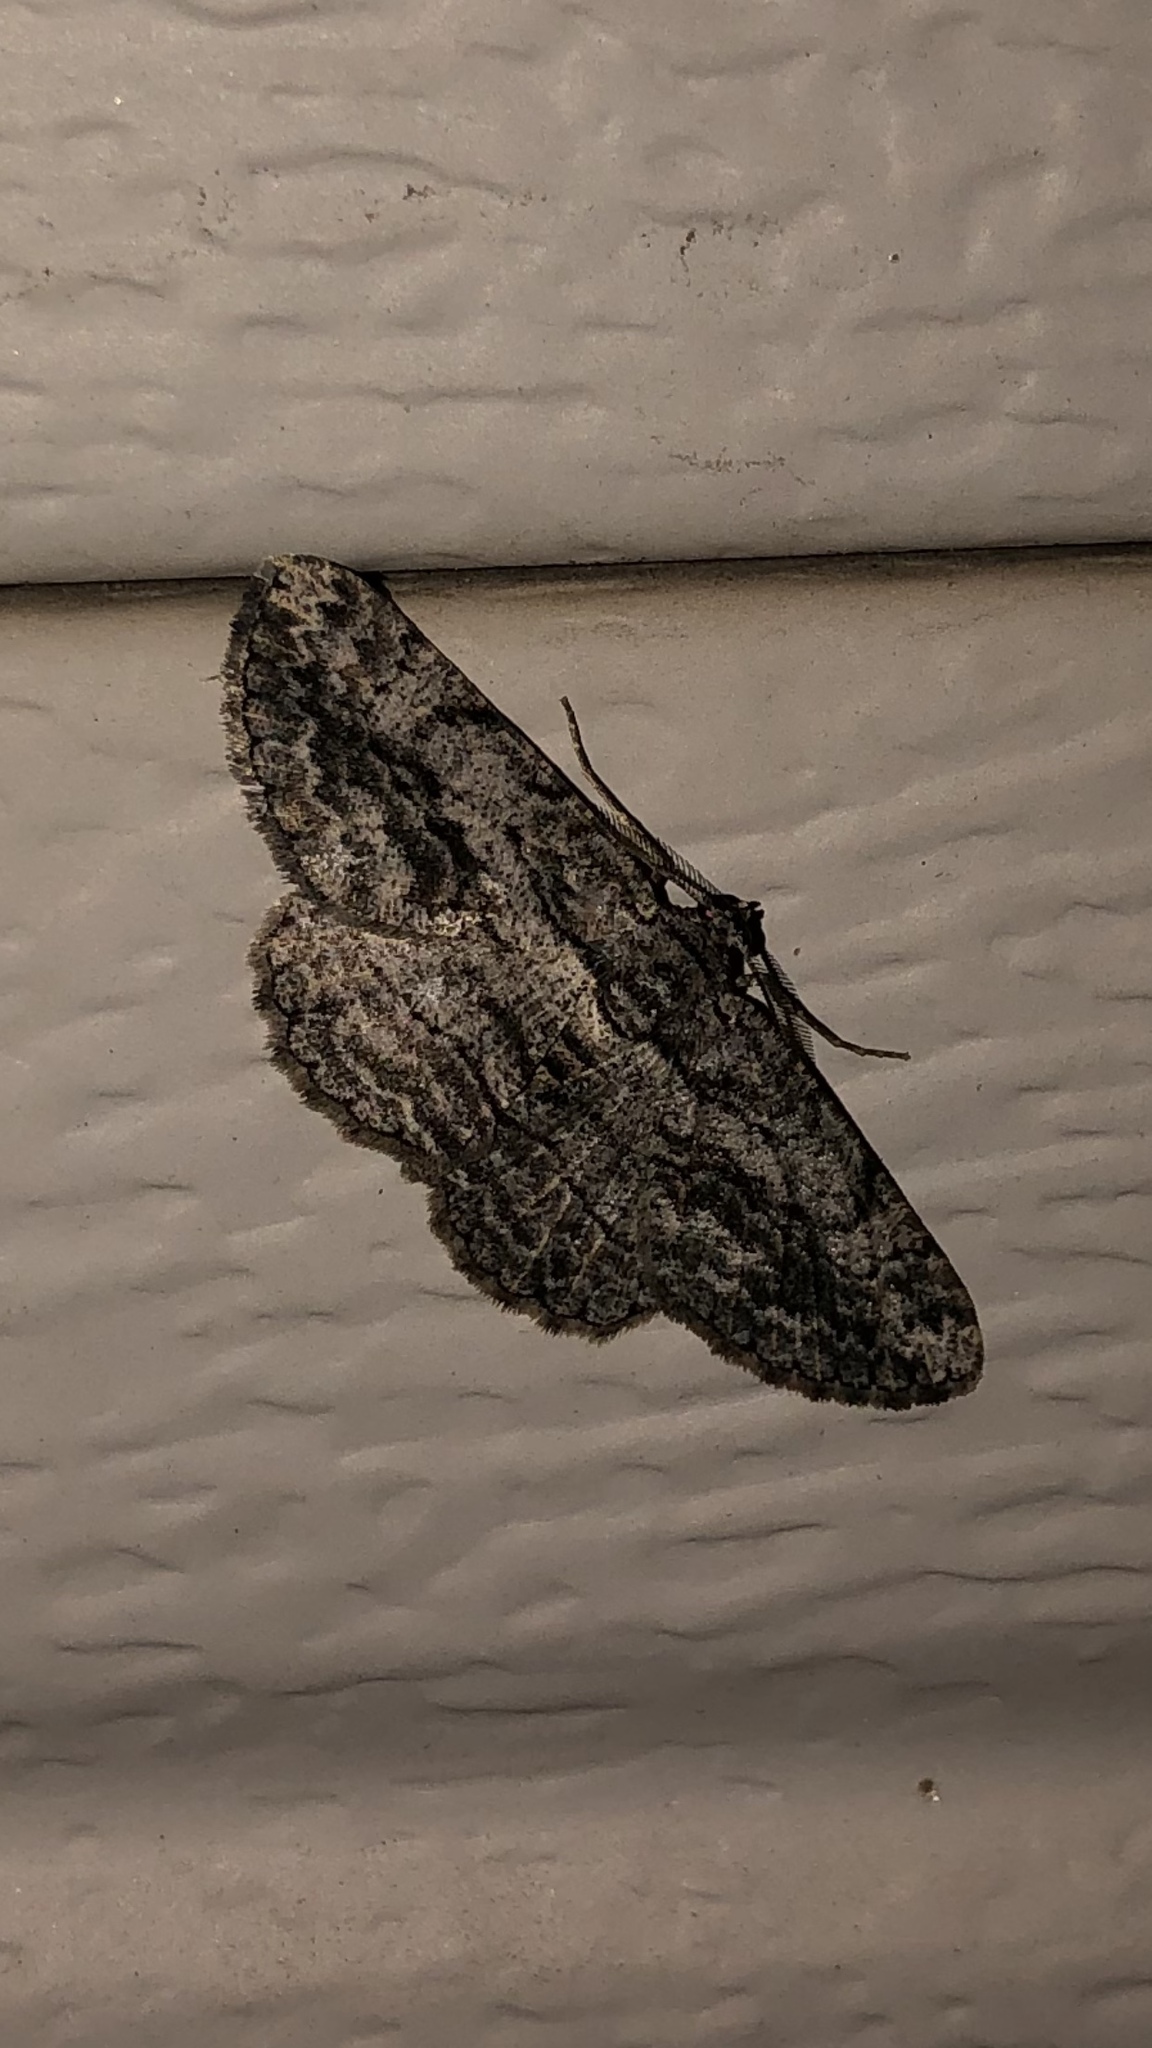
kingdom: Animalia
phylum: Arthropoda
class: Insecta
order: Lepidoptera
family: Geometridae
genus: Anavitrinella
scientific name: Anavitrinella pampinaria
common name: Common gray
